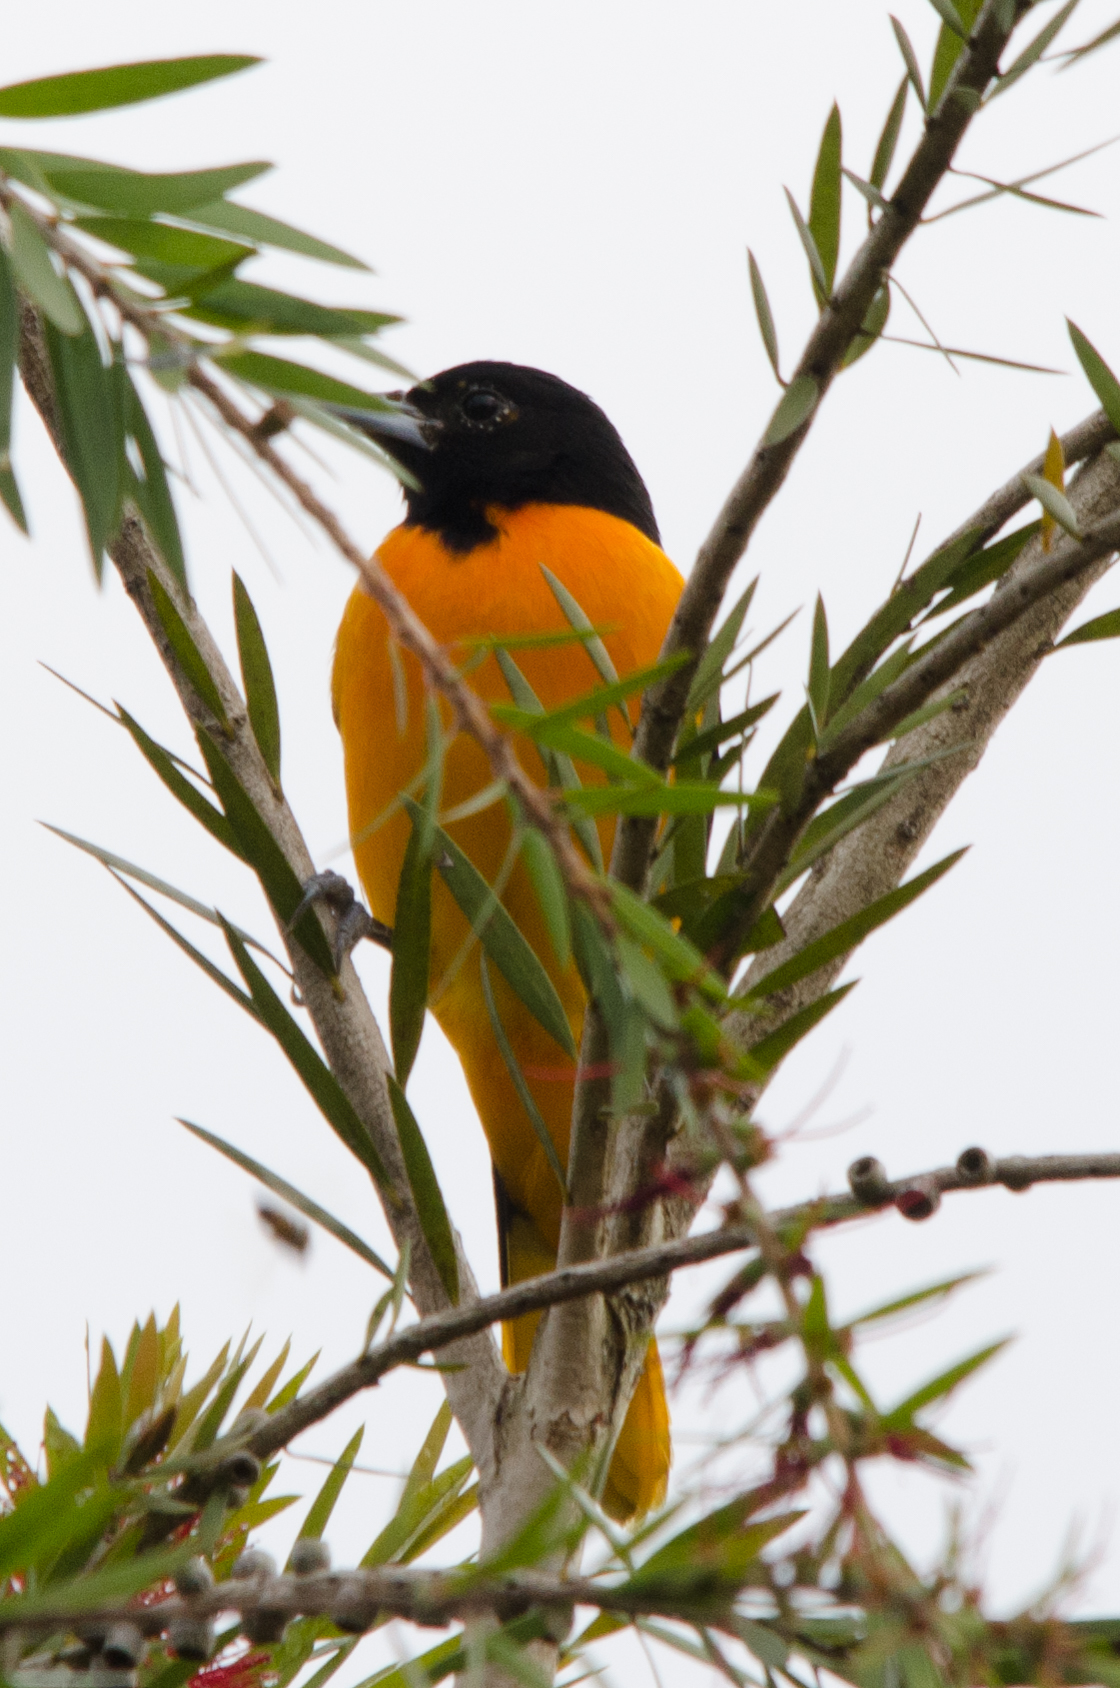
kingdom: Animalia
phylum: Chordata
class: Aves
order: Passeriformes
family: Icteridae
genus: Icterus
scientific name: Icterus galbula
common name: Baltimore oriole
